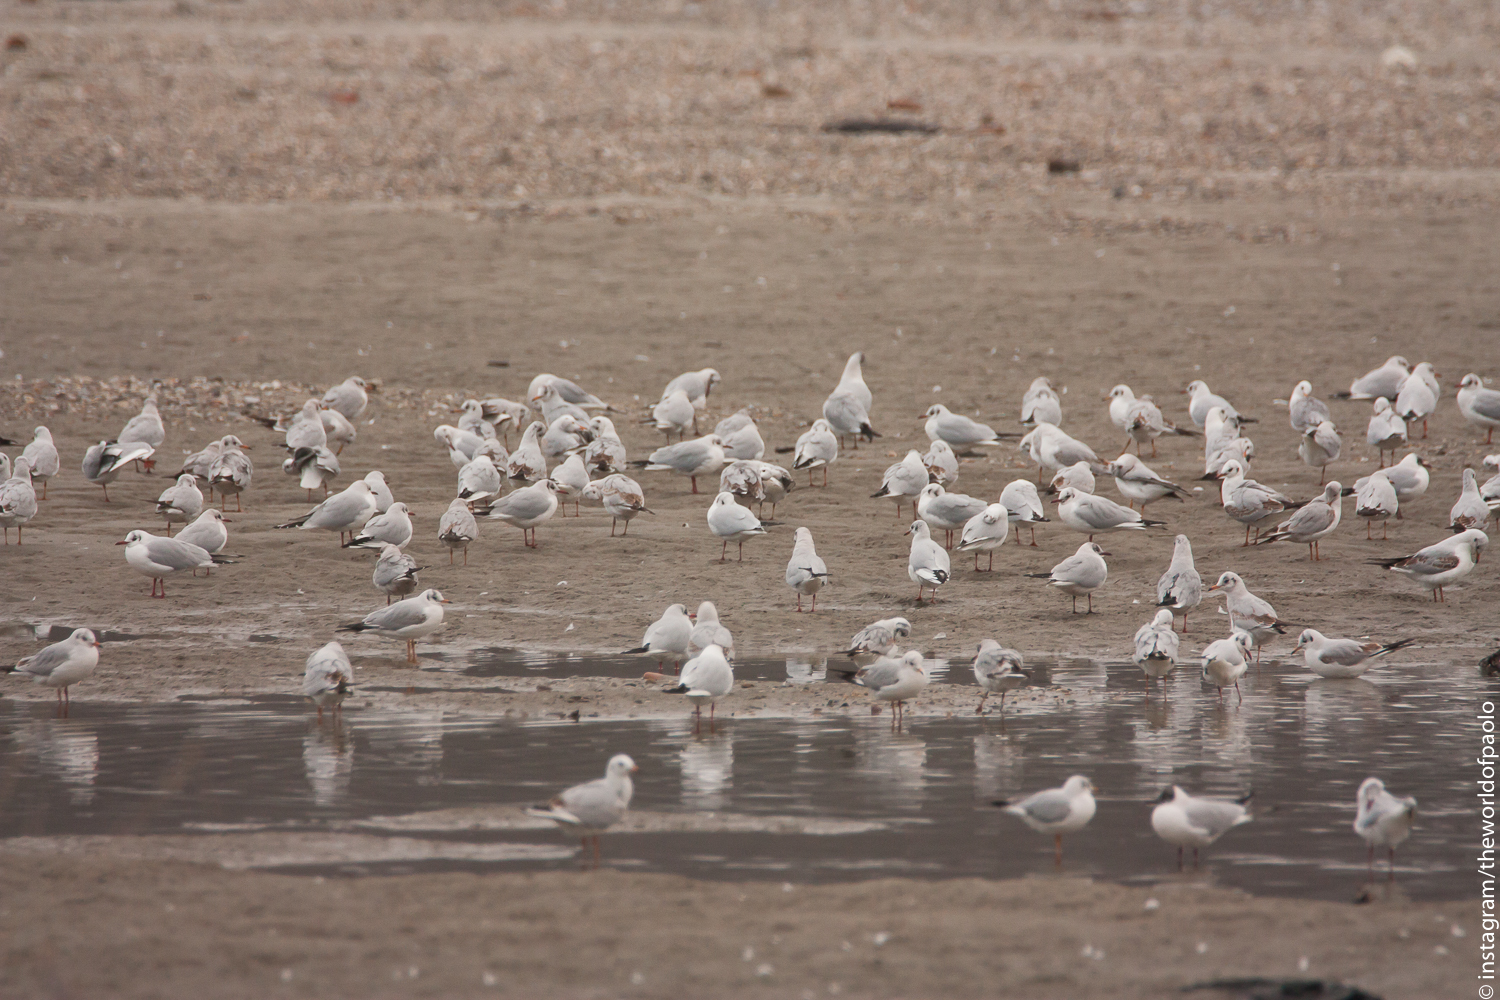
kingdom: Animalia
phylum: Chordata
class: Aves
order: Charadriiformes
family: Laridae
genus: Chroicocephalus
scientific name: Chroicocephalus ridibundus
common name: Black-headed gull
